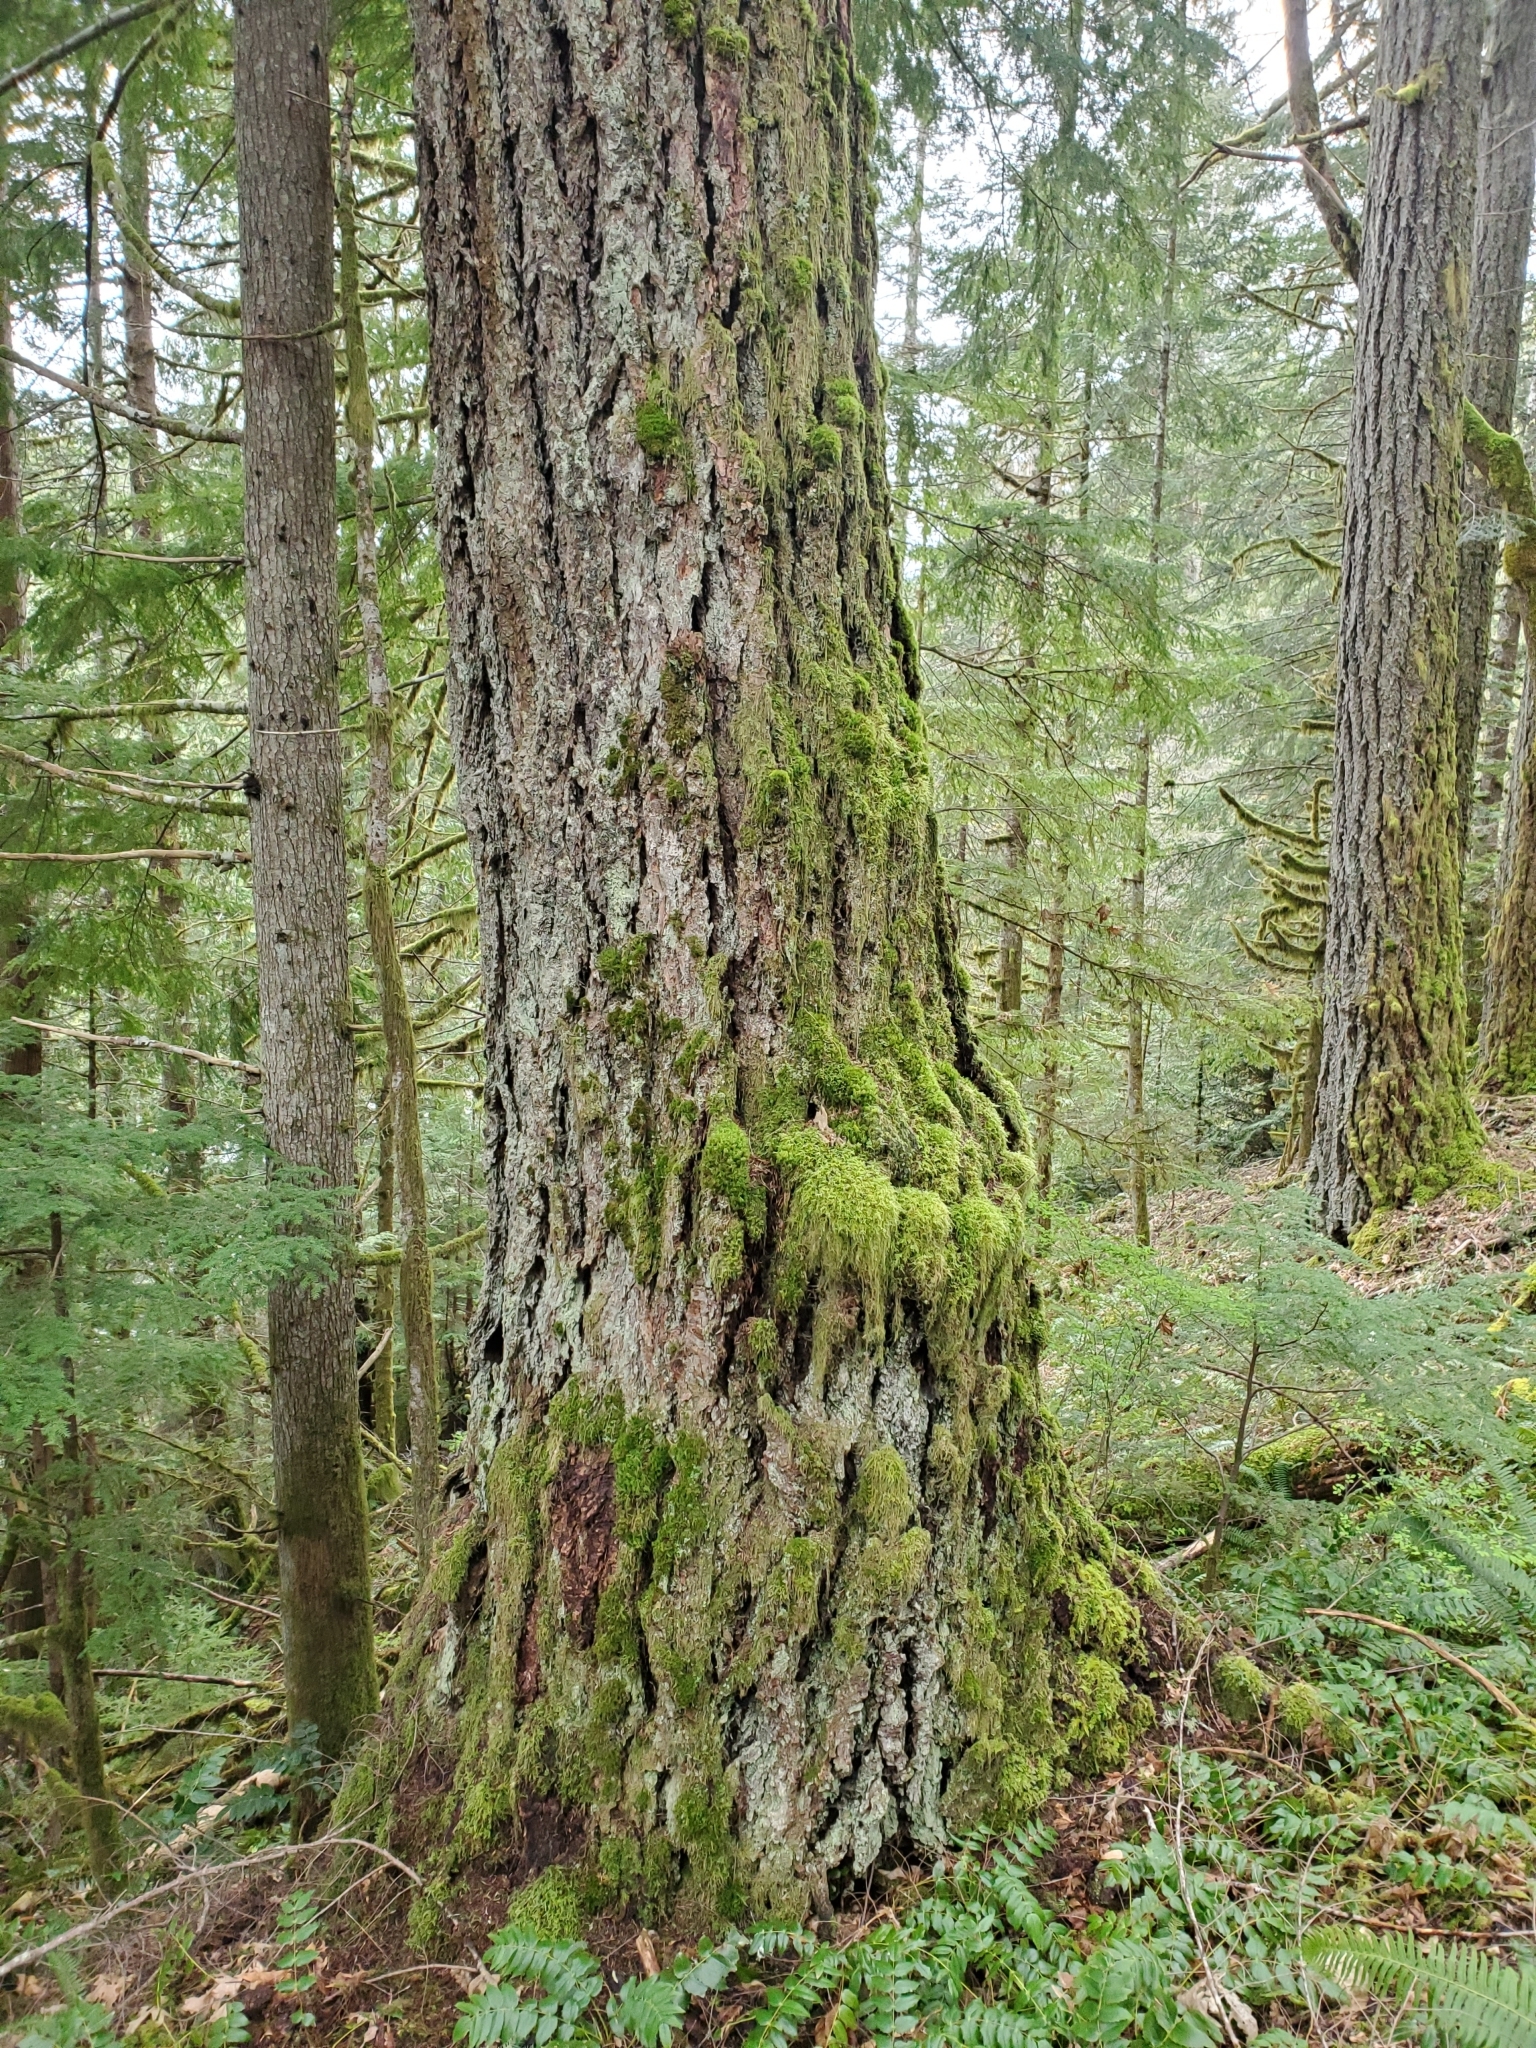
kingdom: Plantae
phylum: Tracheophyta
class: Pinopsida
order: Pinales
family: Pinaceae
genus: Pseudotsuga
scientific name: Pseudotsuga menziesii
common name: Douglas fir
